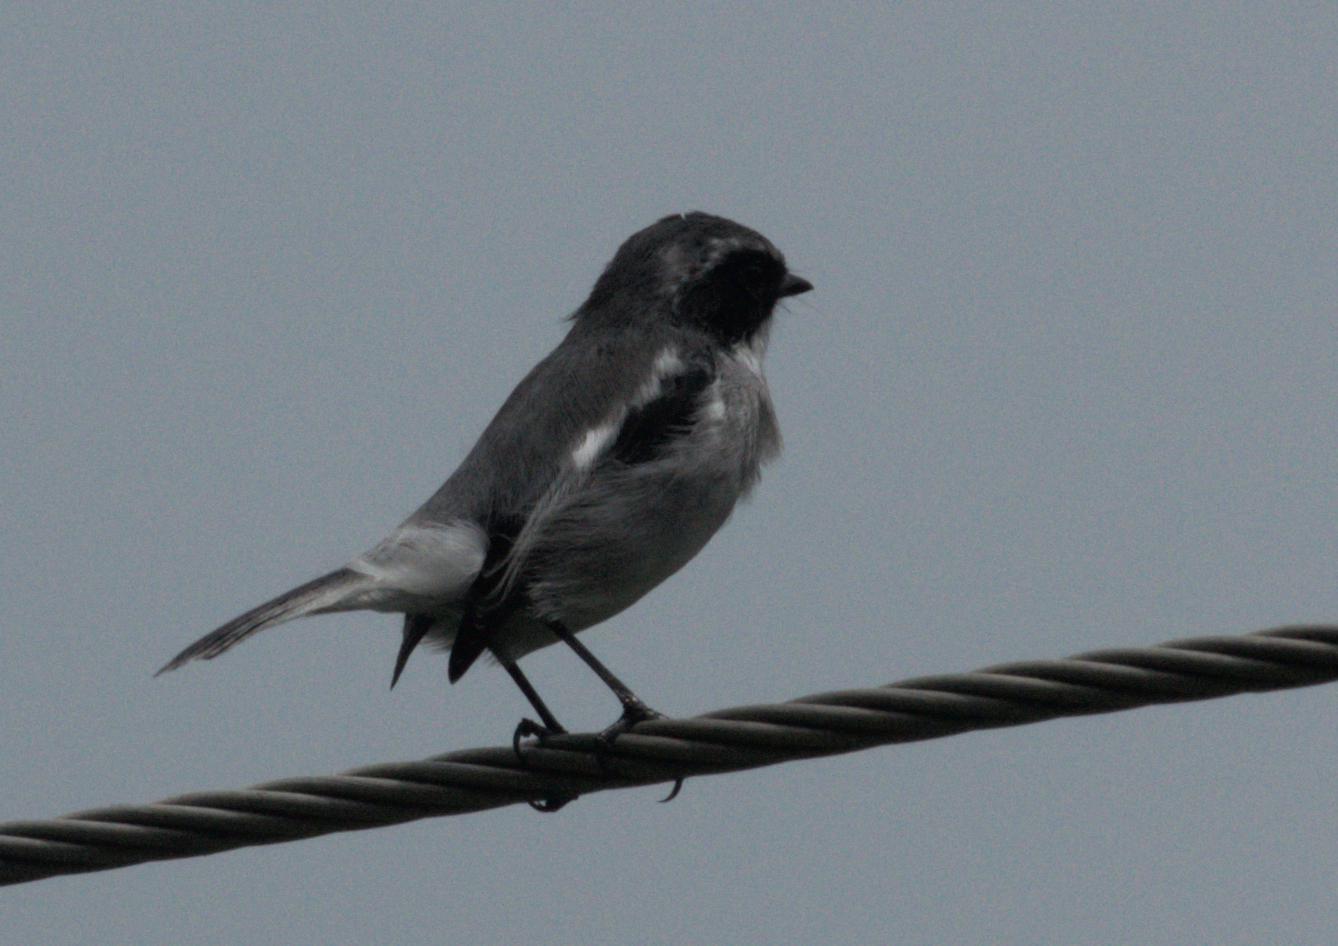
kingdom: Animalia
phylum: Chordata
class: Aves
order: Passeriformes
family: Muscicapidae
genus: Saxicola
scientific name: Saxicola ferreus
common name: Grey bush chat
